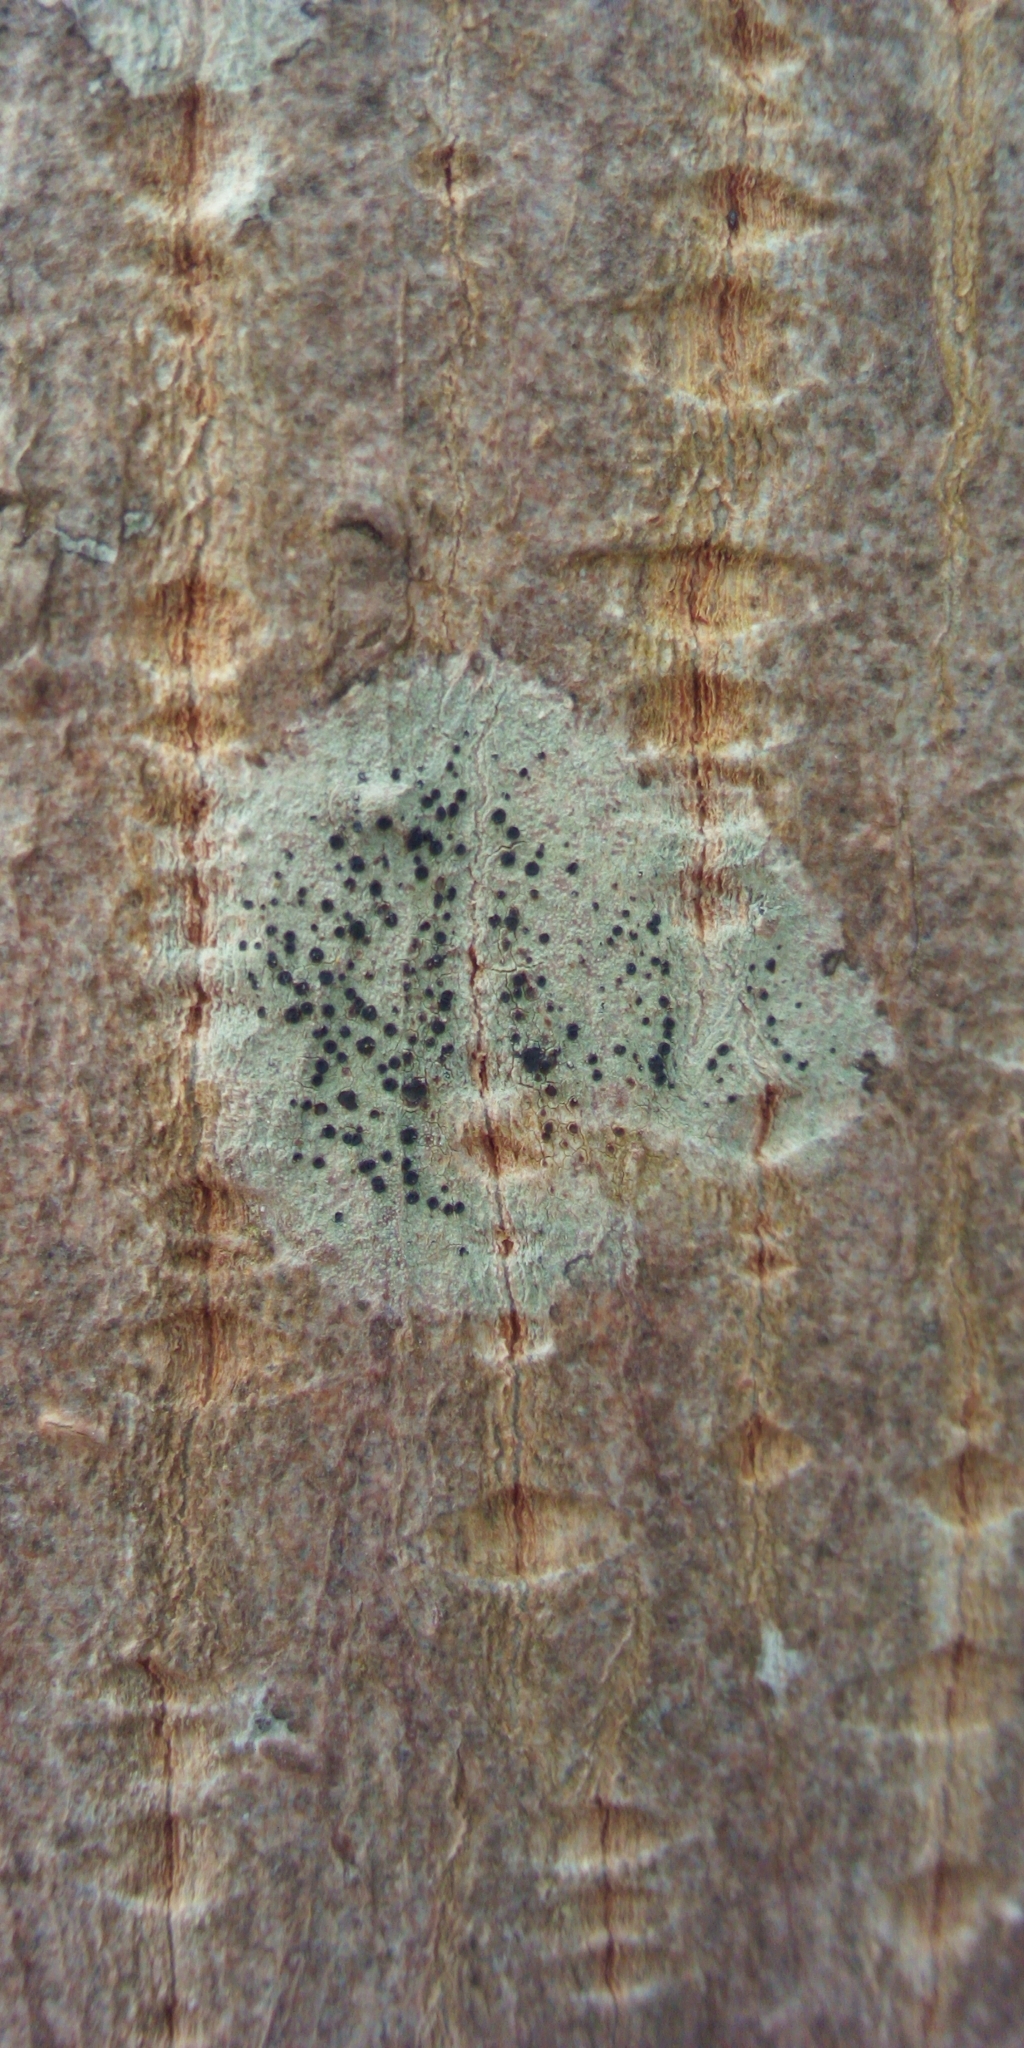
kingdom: Fungi
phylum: Ascomycota
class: Lecanoromycetes
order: Lecanorales
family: Lecanoraceae
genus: Lecidella
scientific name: Lecidella elaeochroma
